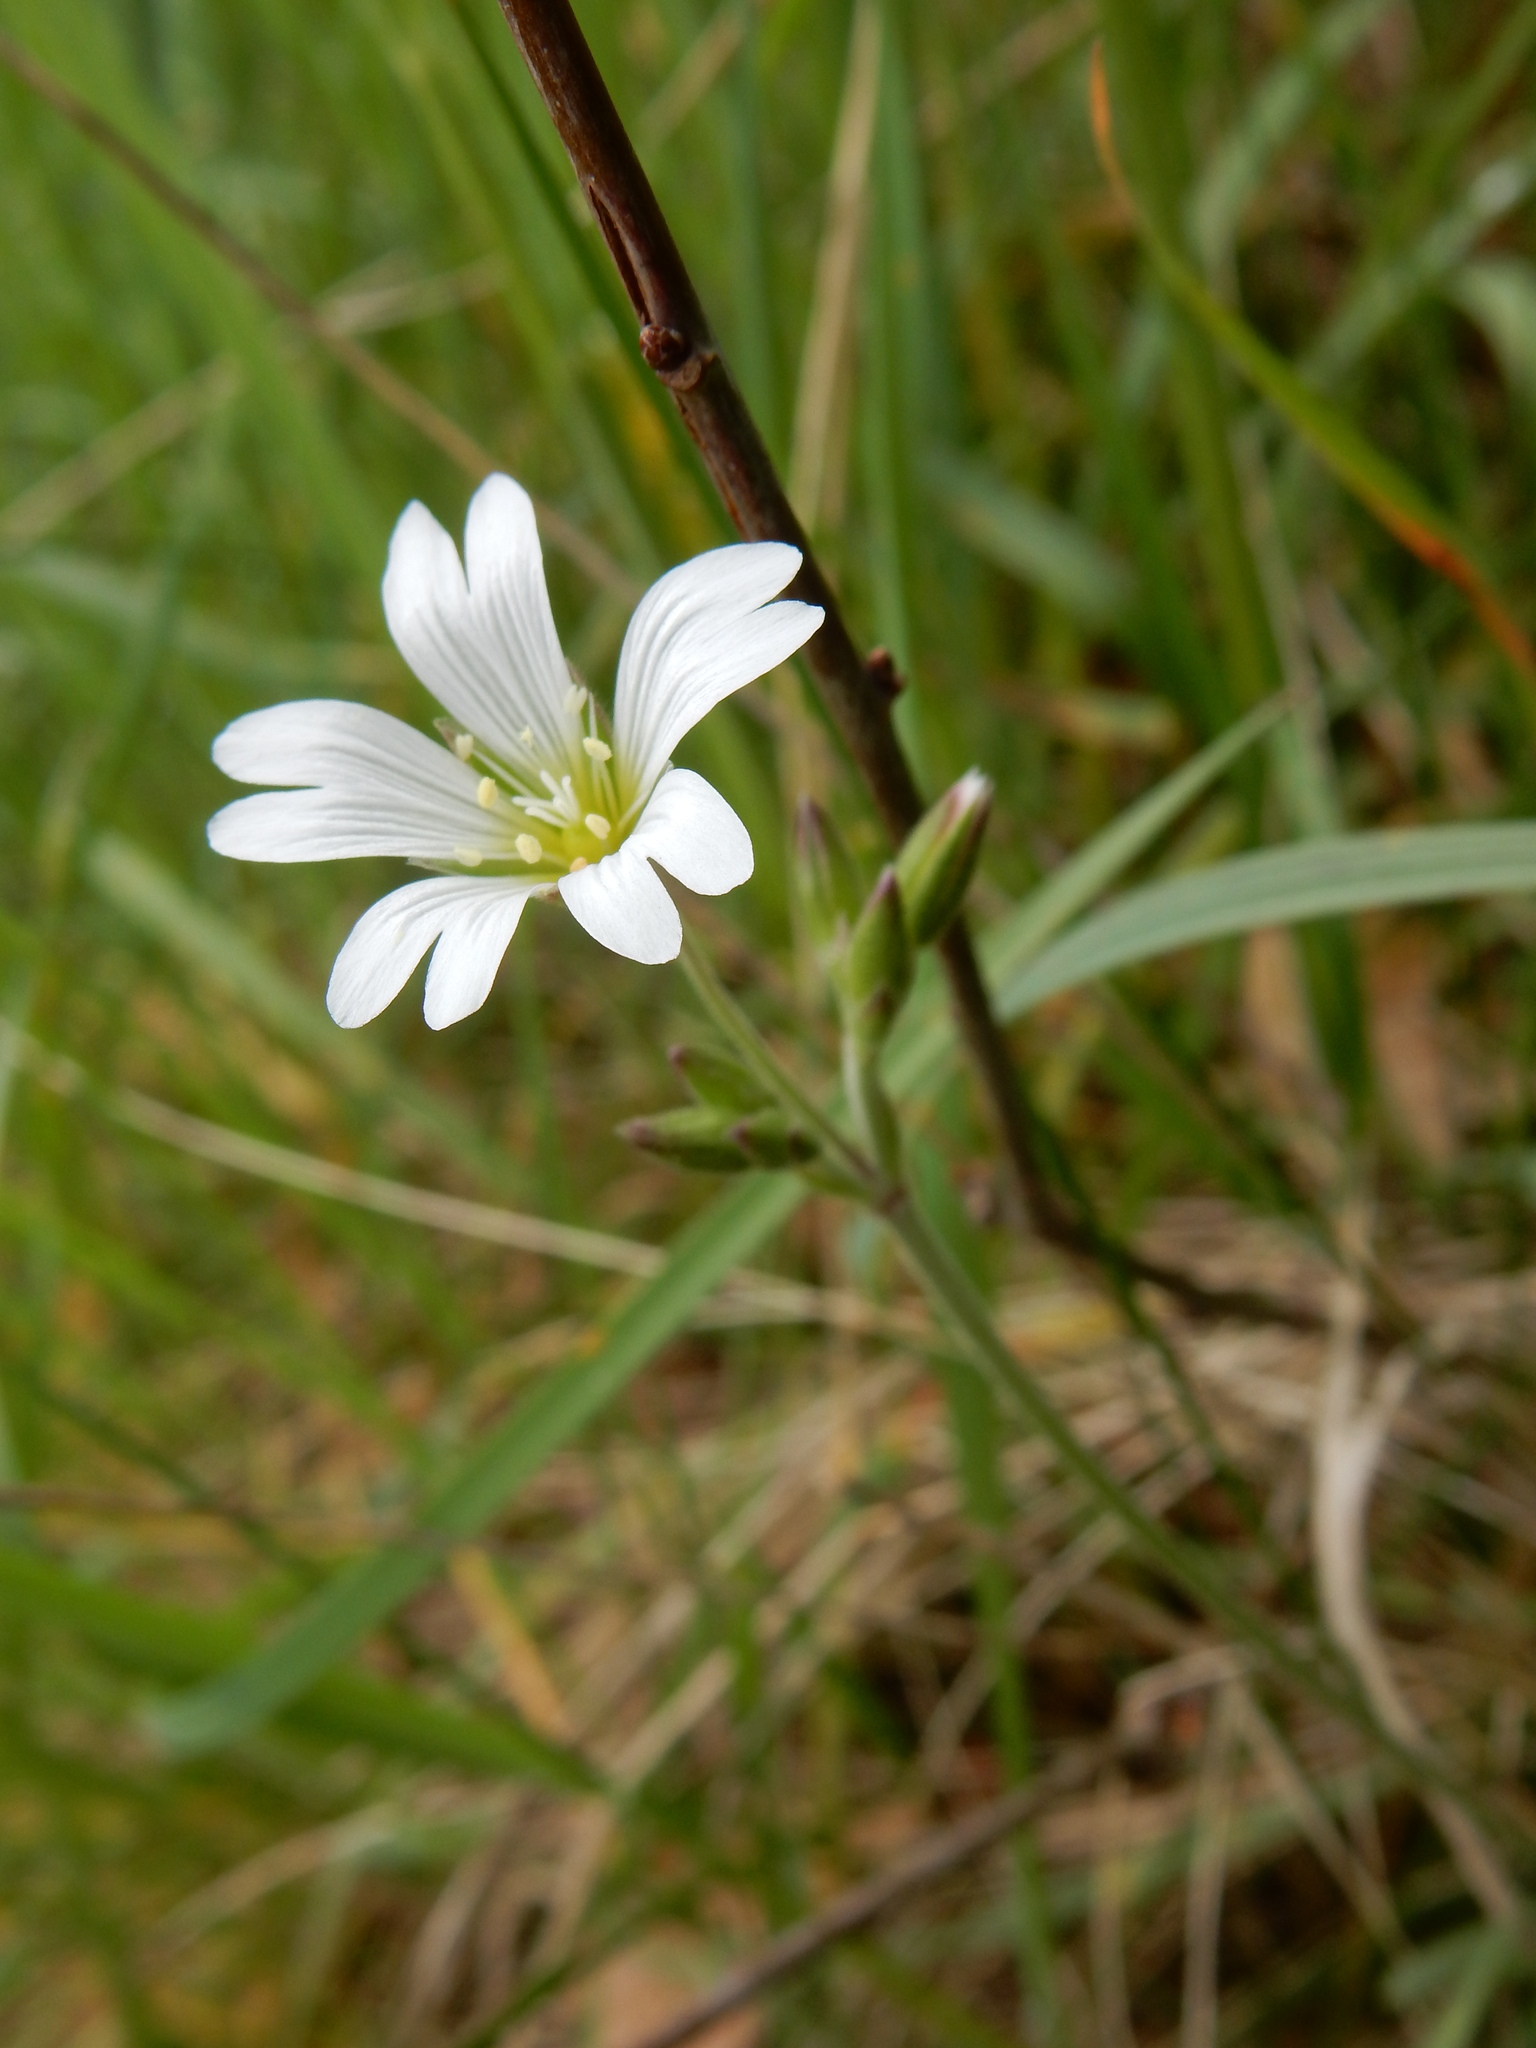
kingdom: Plantae
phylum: Tracheophyta
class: Magnoliopsida
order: Caryophyllales
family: Caryophyllaceae
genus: Cerastium
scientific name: Cerastium arvense
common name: Field mouse-ear
